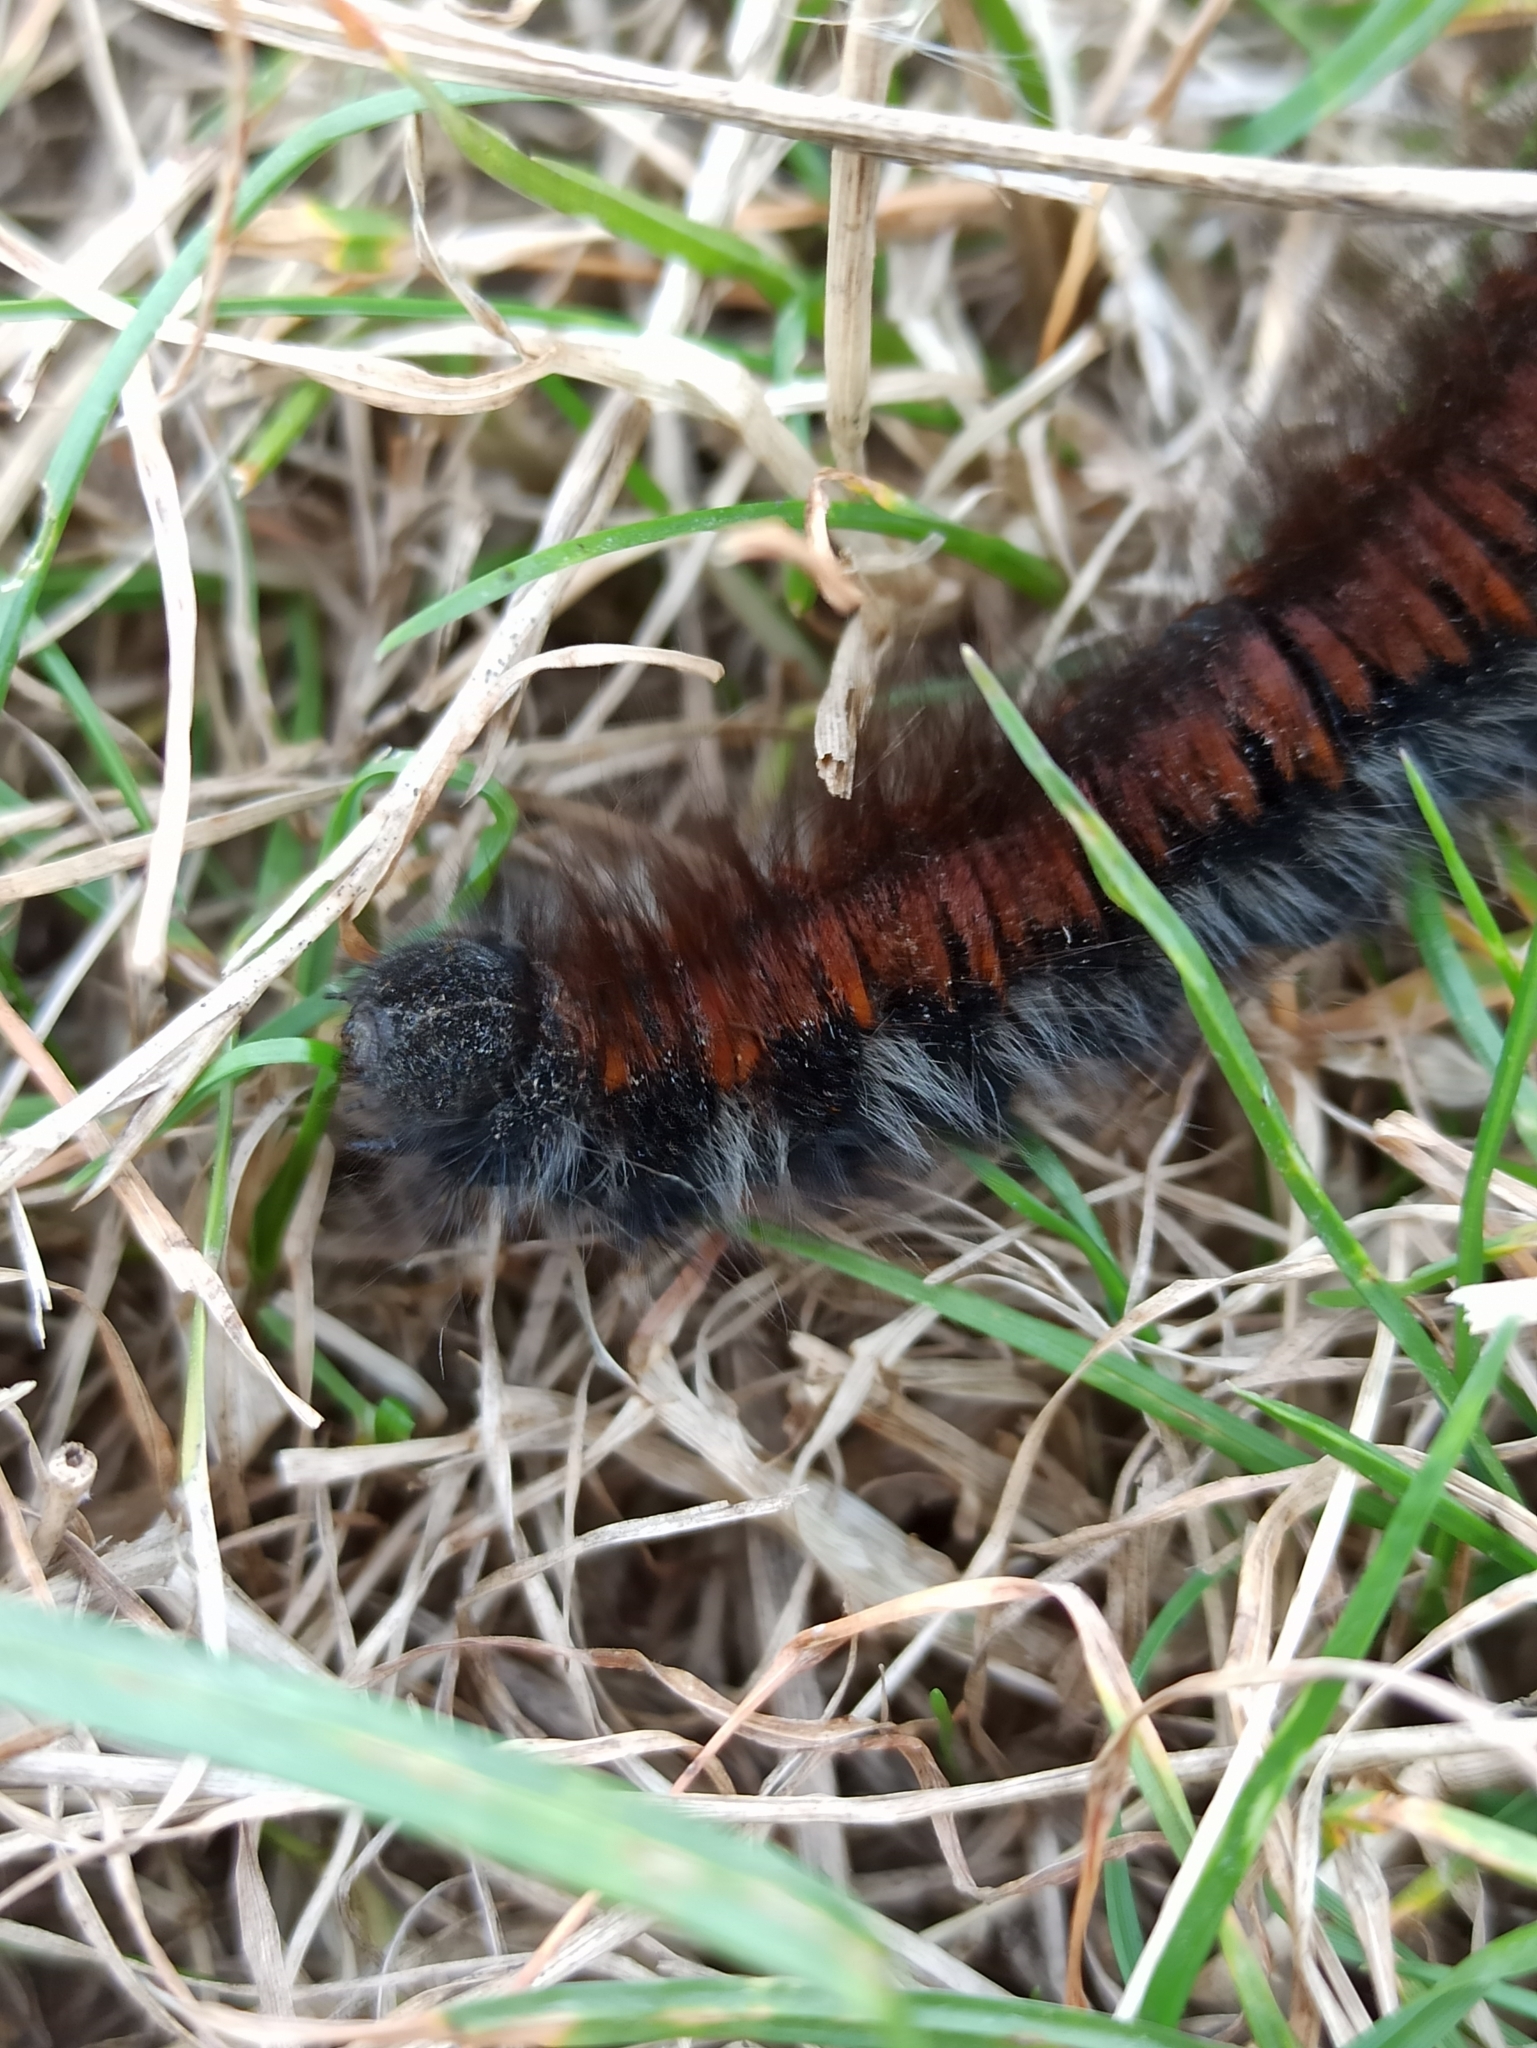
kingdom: Animalia
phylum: Arthropoda
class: Insecta
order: Lepidoptera
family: Lasiocampidae
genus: Macrothylacia
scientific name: Macrothylacia rubi
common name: Fox moth
